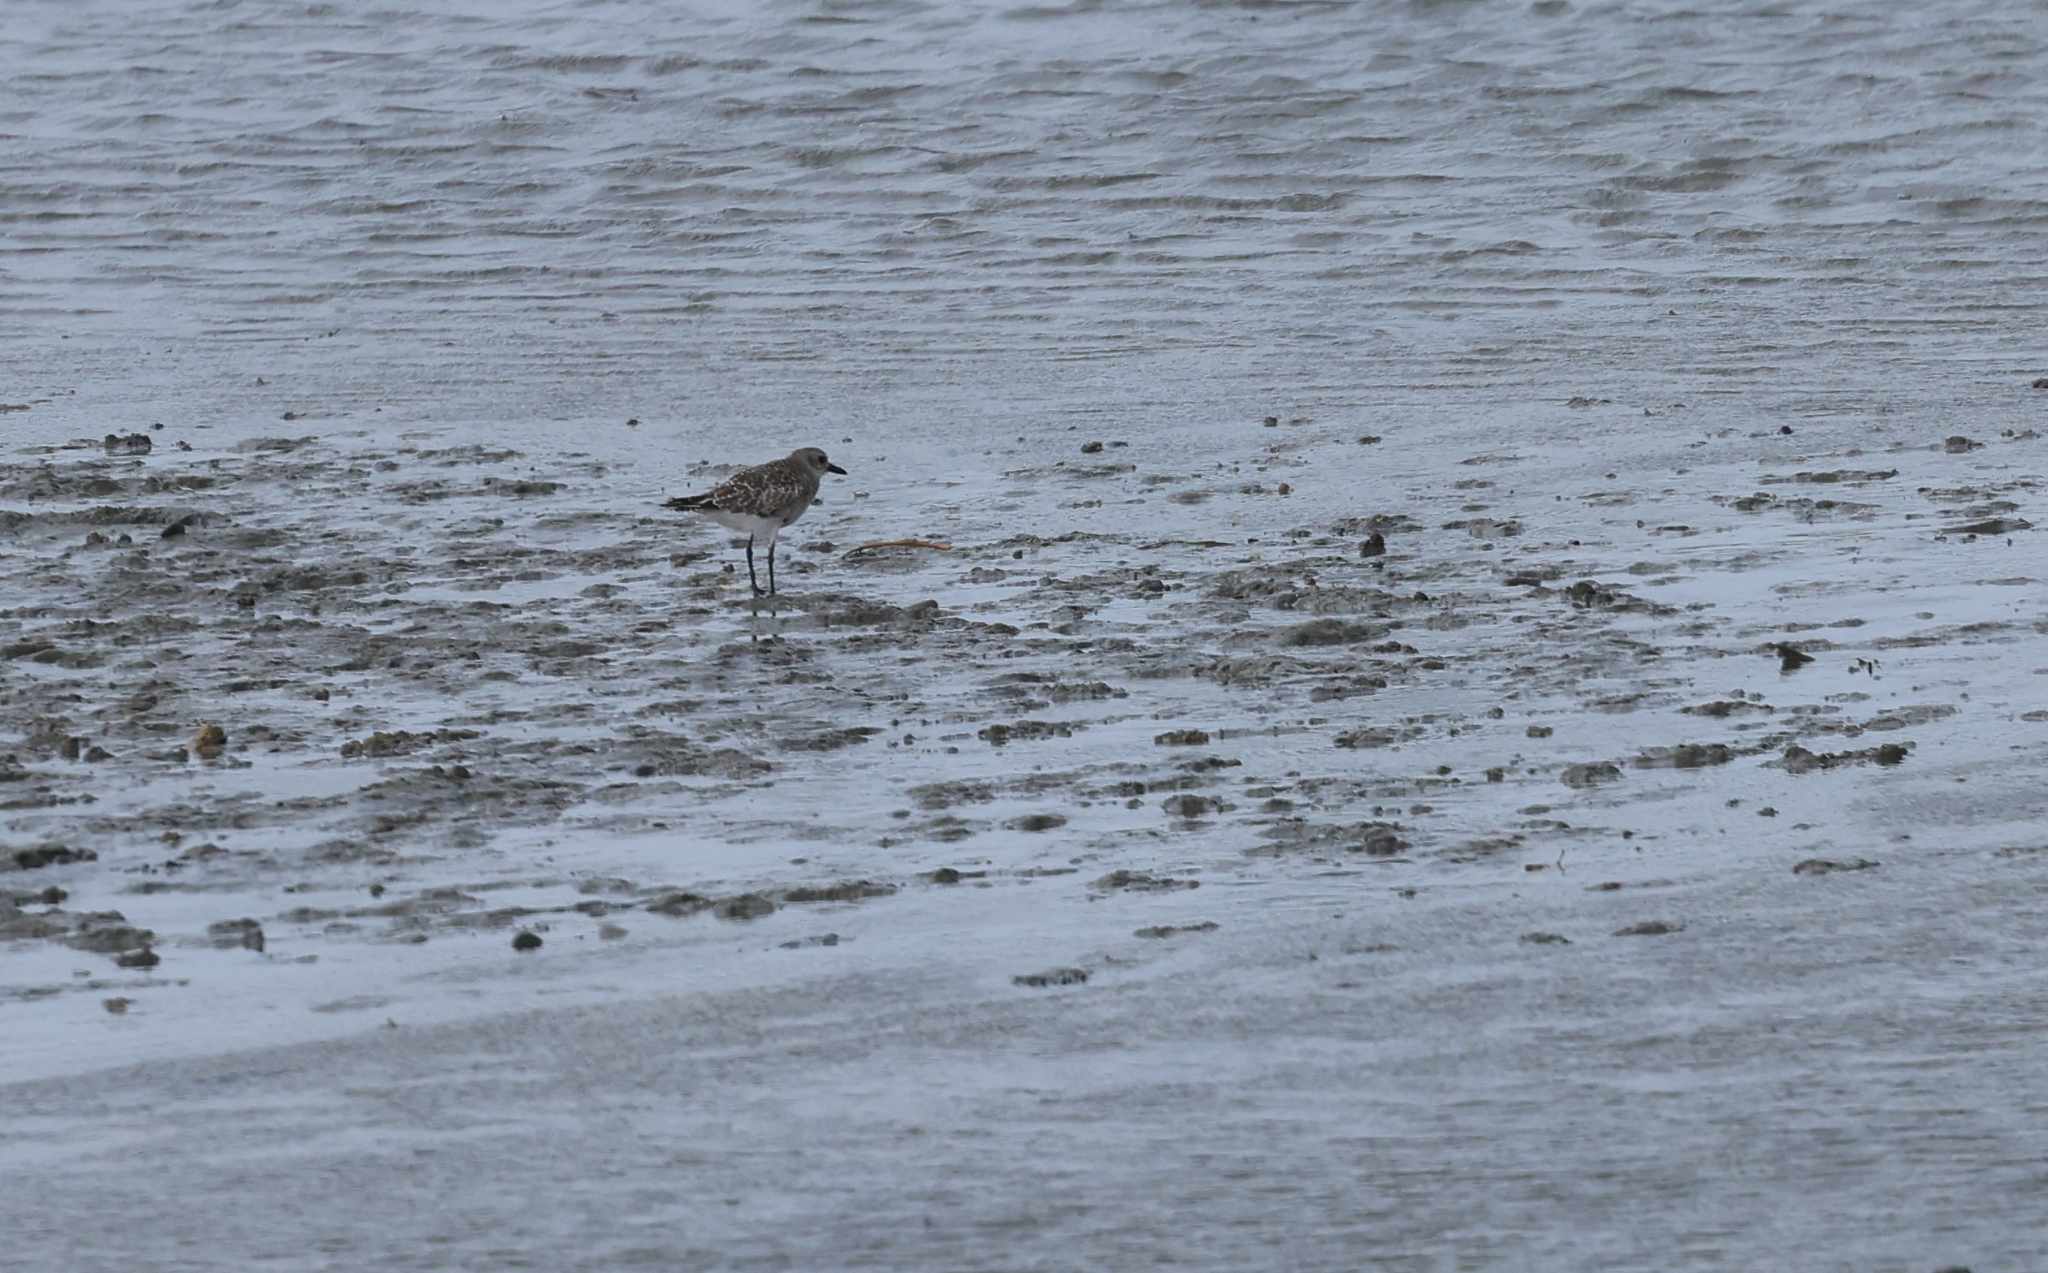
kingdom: Animalia
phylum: Chordata
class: Aves
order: Charadriiformes
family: Charadriidae
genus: Pluvialis
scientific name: Pluvialis squatarola
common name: Grey plover
